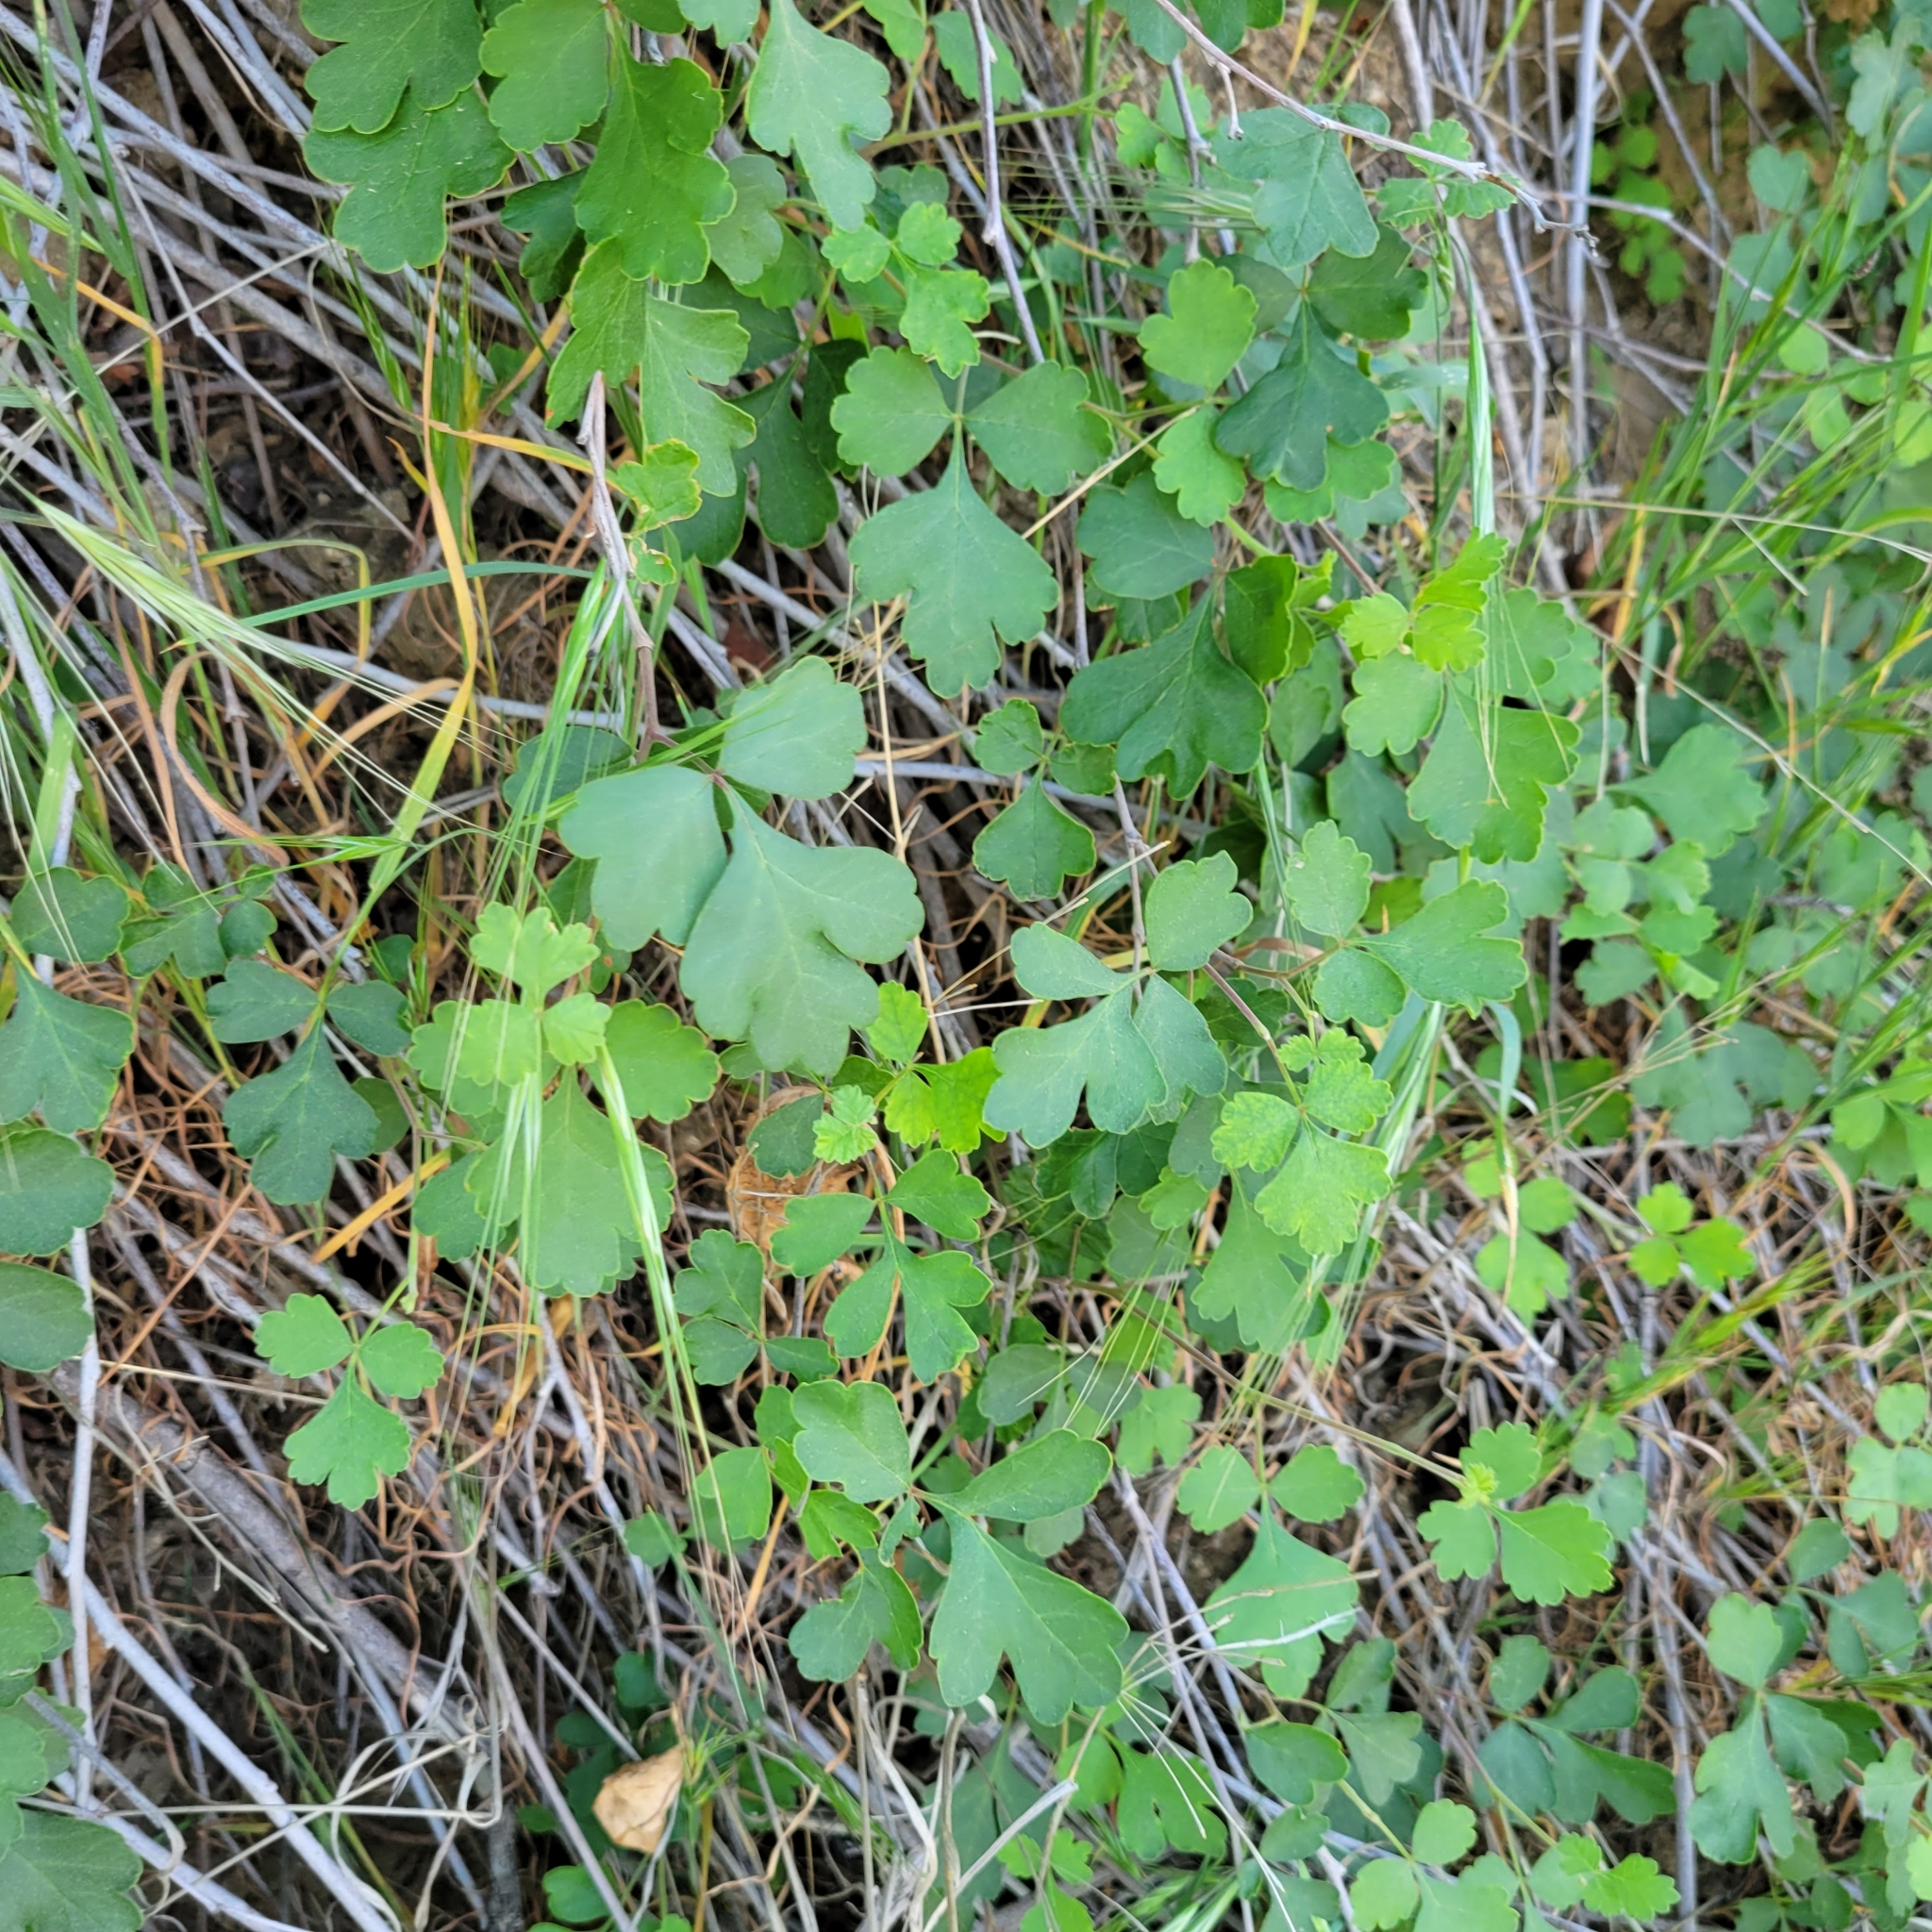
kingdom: Plantae
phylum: Tracheophyta
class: Magnoliopsida
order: Sapindales
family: Anacardiaceae
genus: Rhus
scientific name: Rhus aromatica
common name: Aromatic sumac
